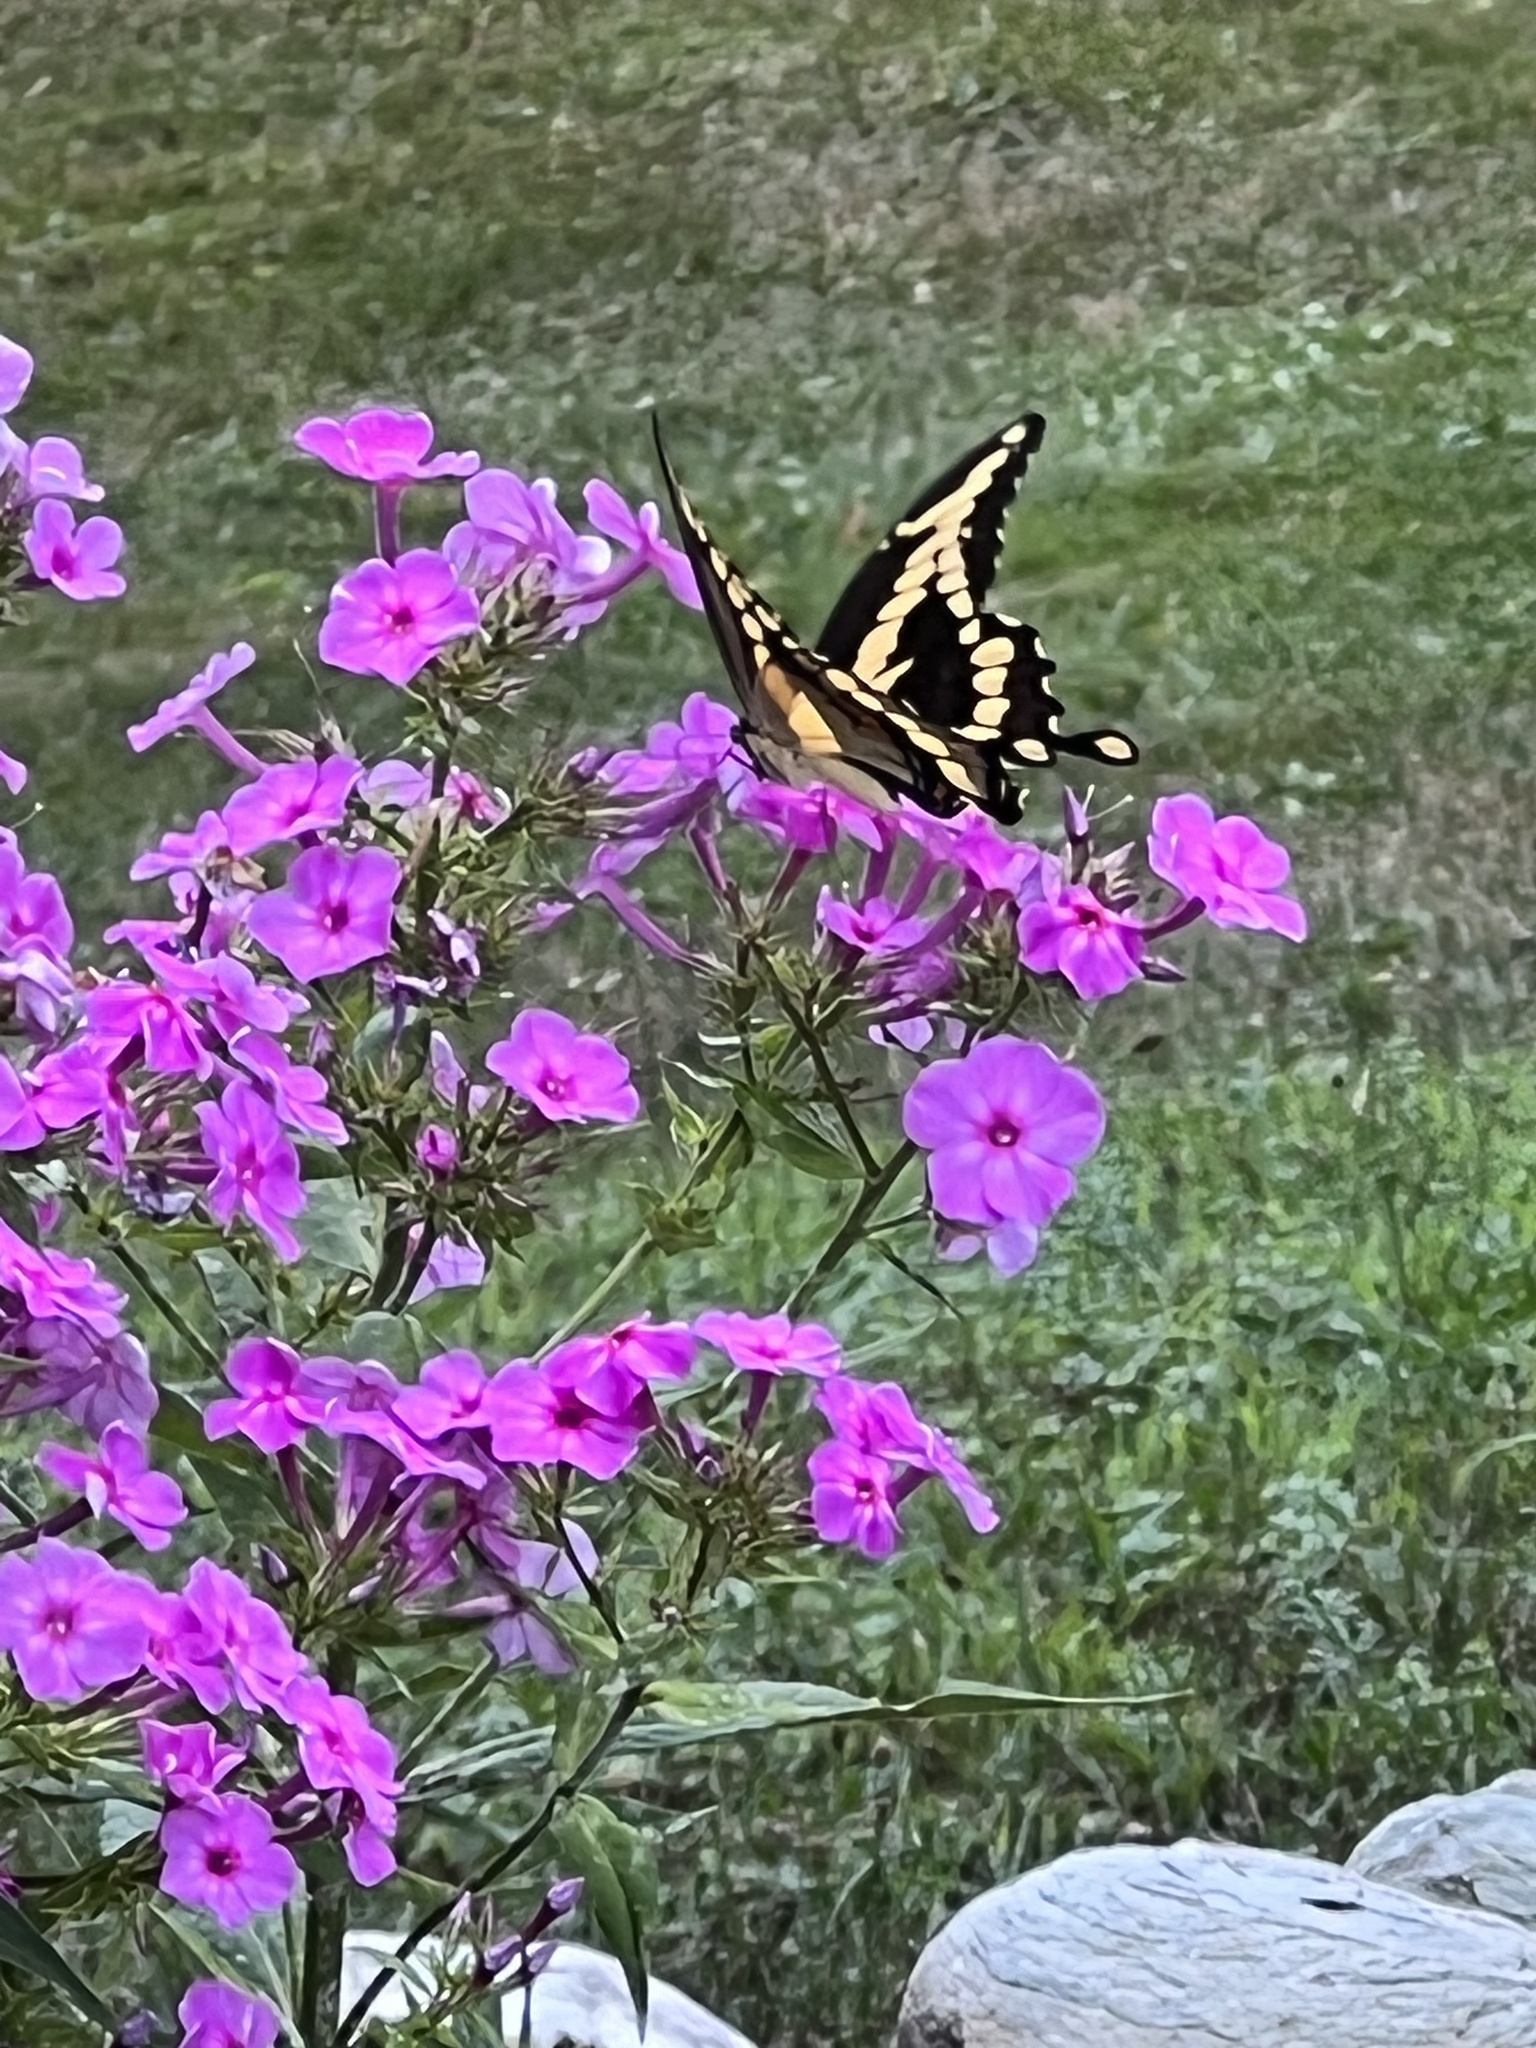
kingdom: Animalia
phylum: Arthropoda
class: Insecta
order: Lepidoptera
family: Papilionidae
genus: Papilio
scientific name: Papilio cresphontes
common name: Giant swallowtail
